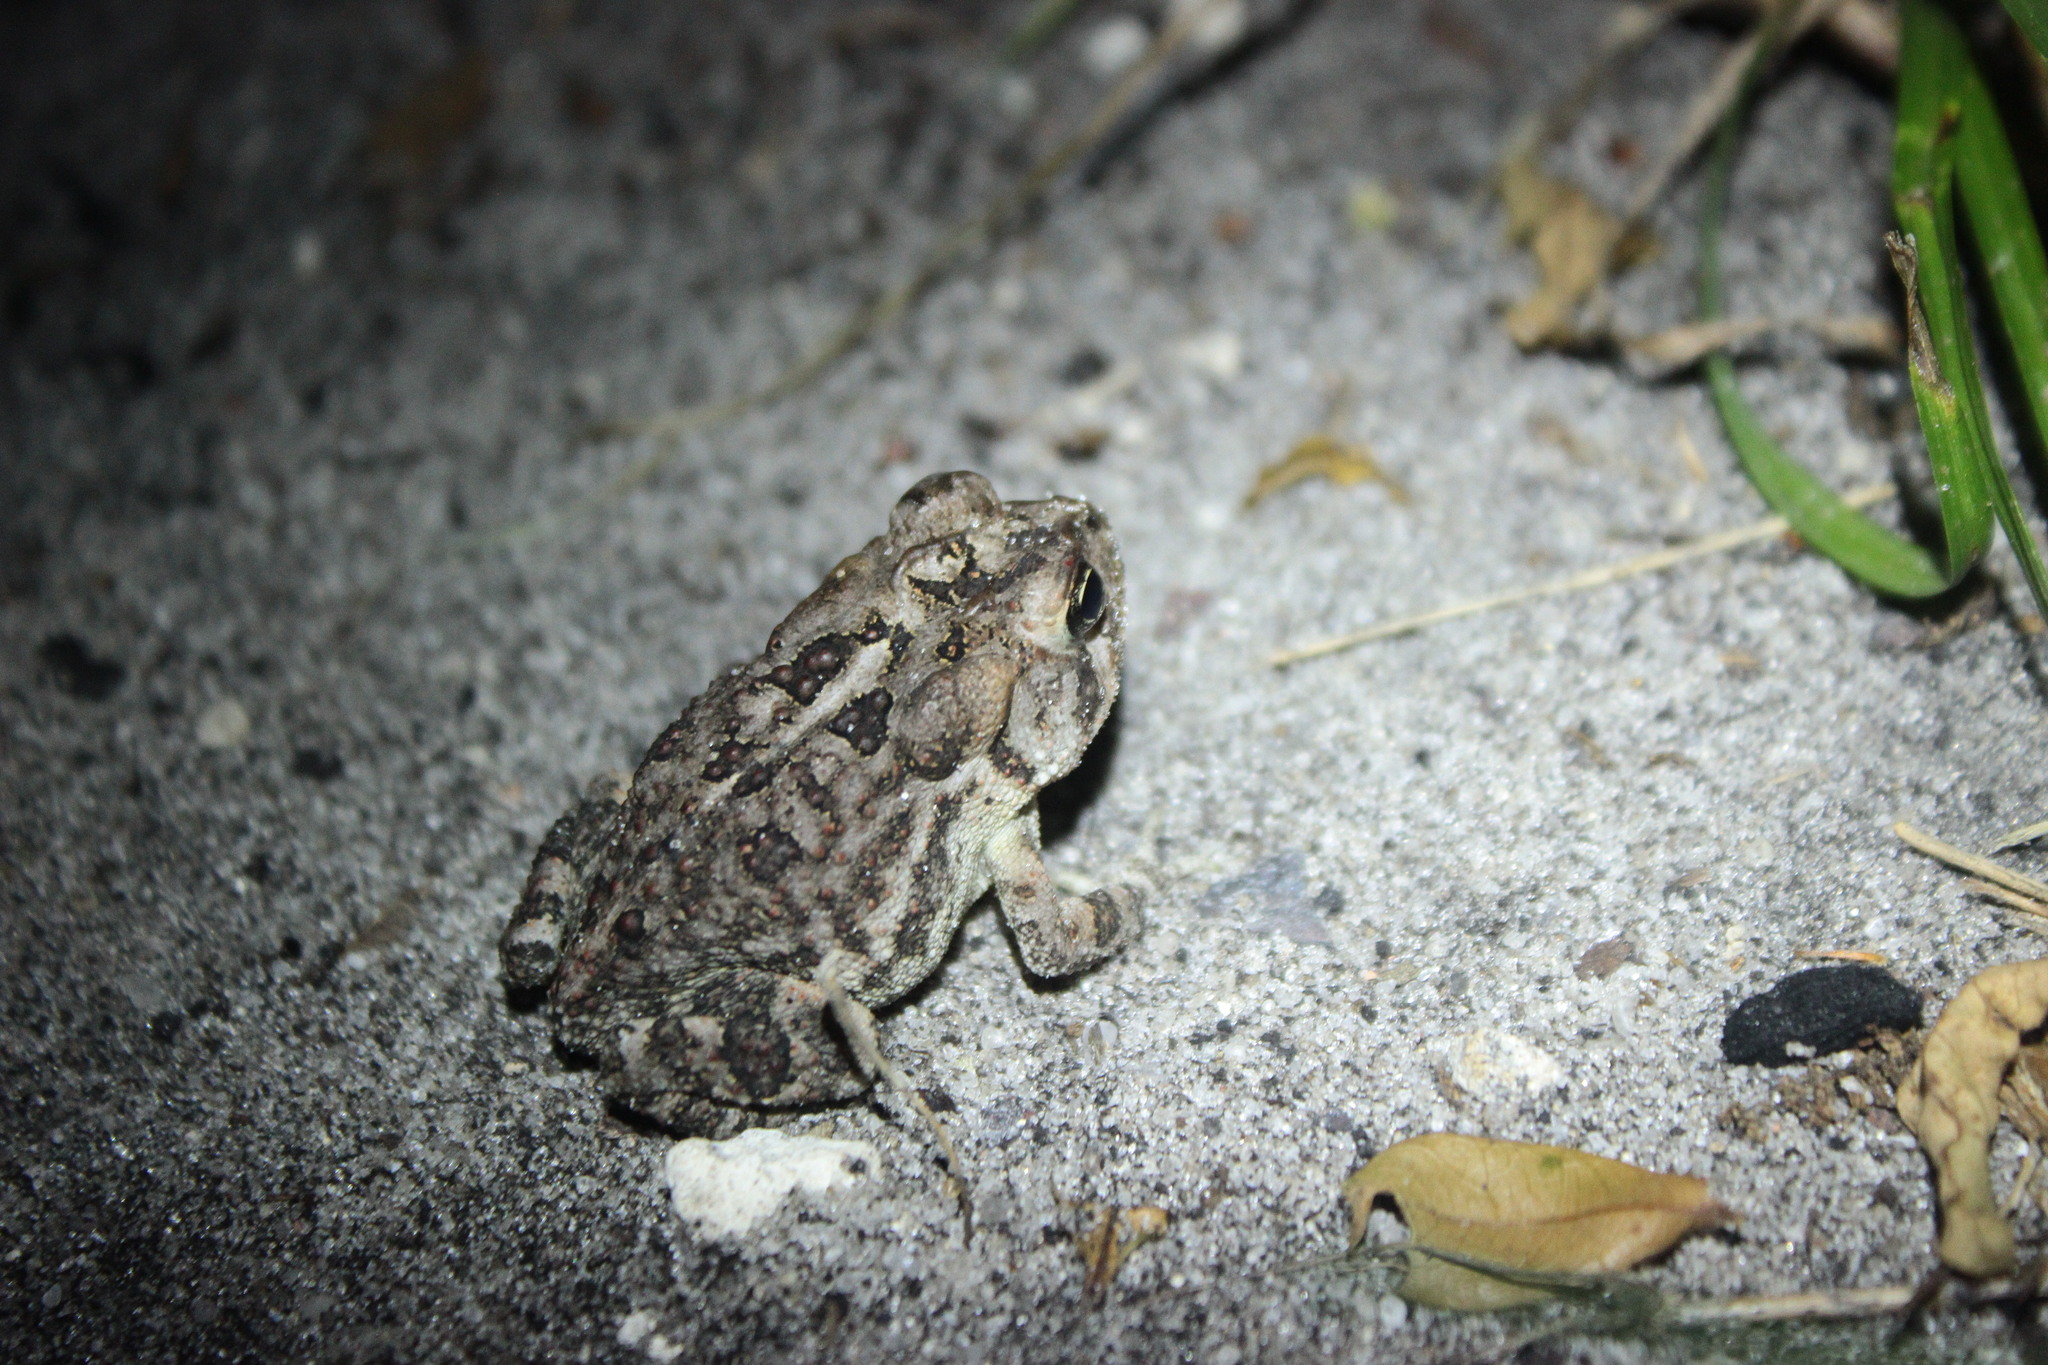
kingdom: Animalia
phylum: Chordata
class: Amphibia
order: Anura
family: Bufonidae
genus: Anaxyrus
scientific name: Anaxyrus terrestris
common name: Southern toad
